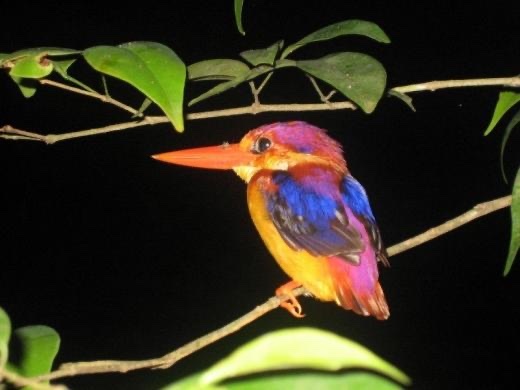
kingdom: Animalia
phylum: Chordata
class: Aves
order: Coraciiformes
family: Alcedinidae
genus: Ceyx
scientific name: Ceyx erithaca
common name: Oriental dwarf kingfisher
